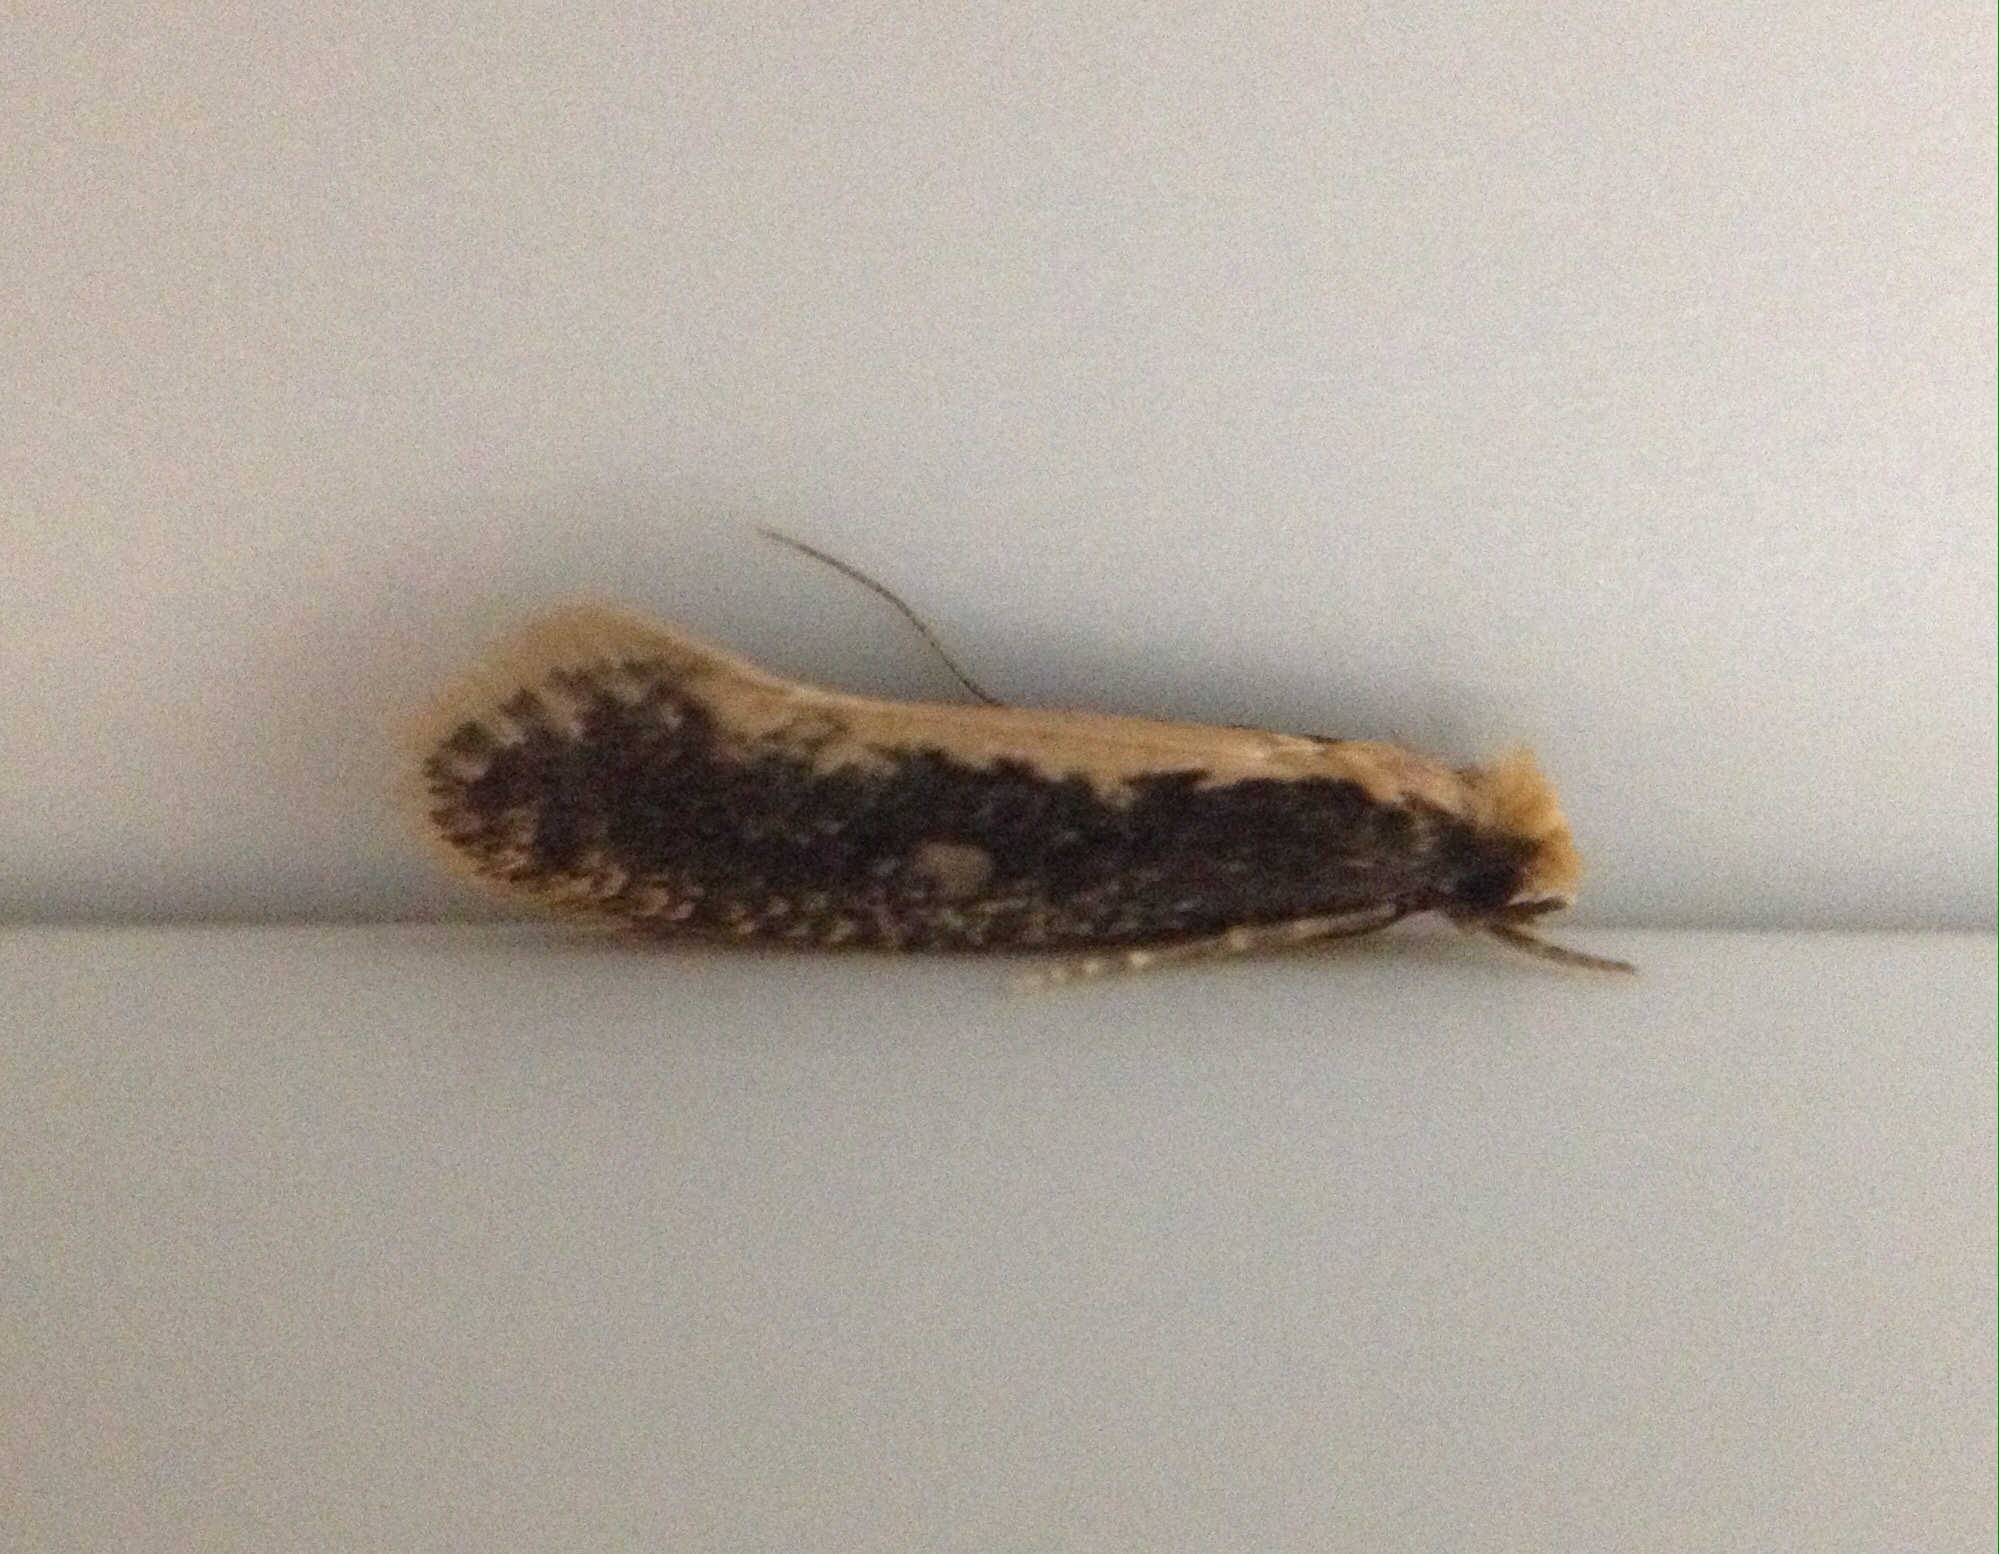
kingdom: Animalia
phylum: Arthropoda
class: Insecta
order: Lepidoptera
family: Tineidae
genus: Monopis
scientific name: Monopis crocicapitella
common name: Moth
